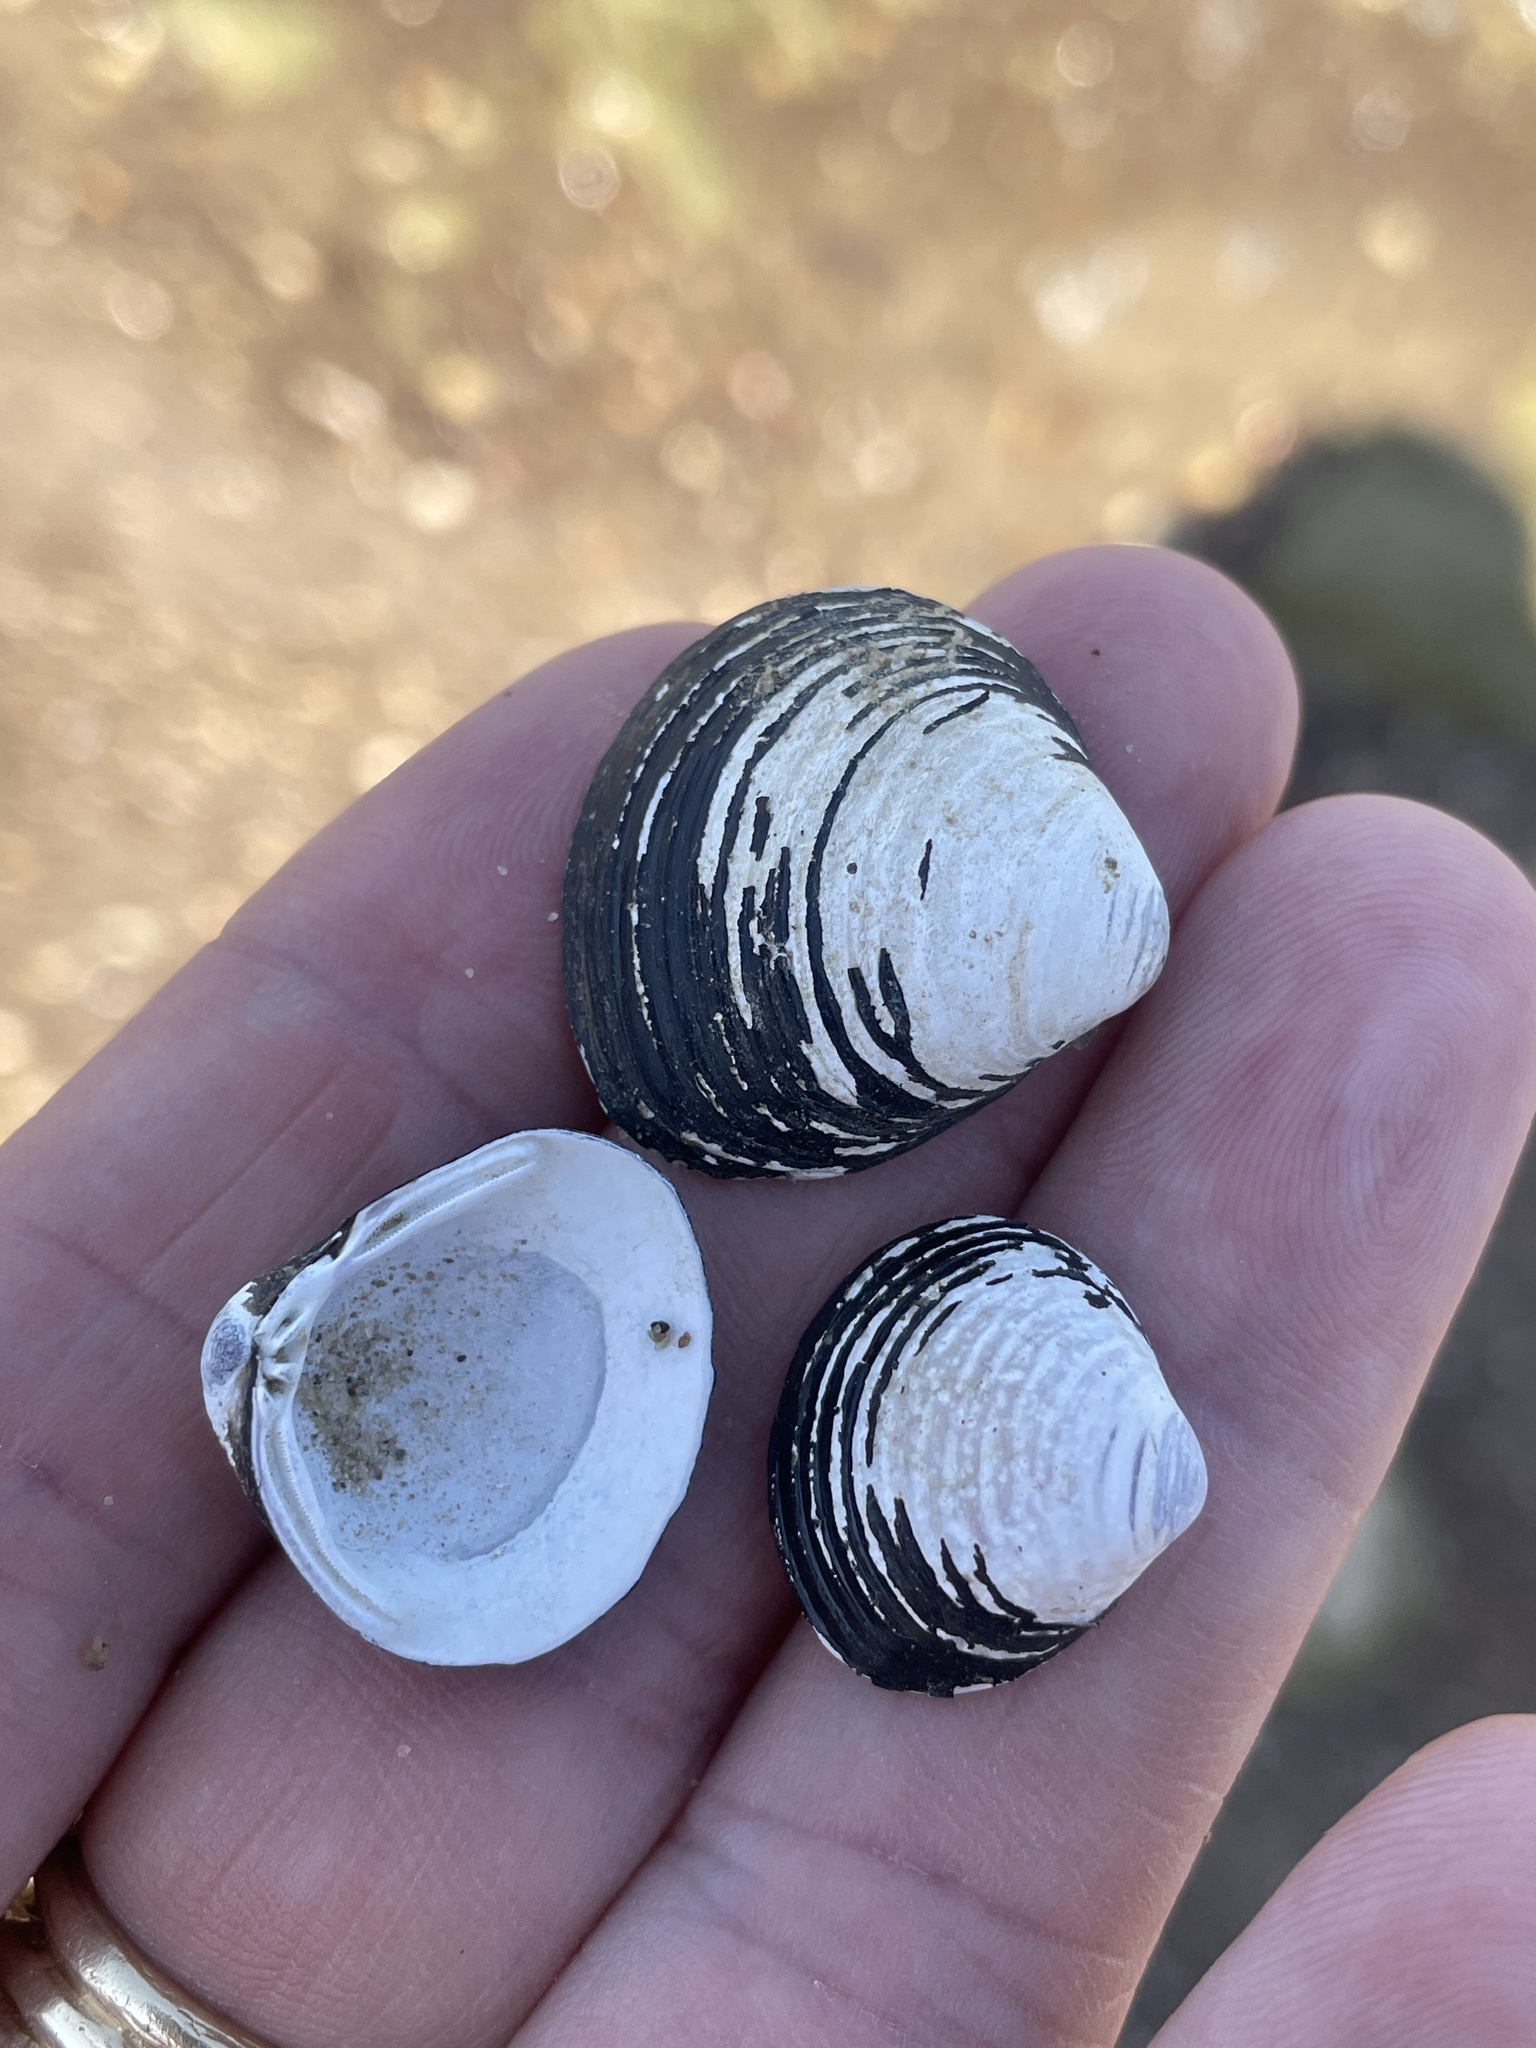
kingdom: Animalia
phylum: Mollusca
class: Bivalvia
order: Venerida
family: Cyrenidae
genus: Corbicula
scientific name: Corbicula fluminea
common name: Asian clam
